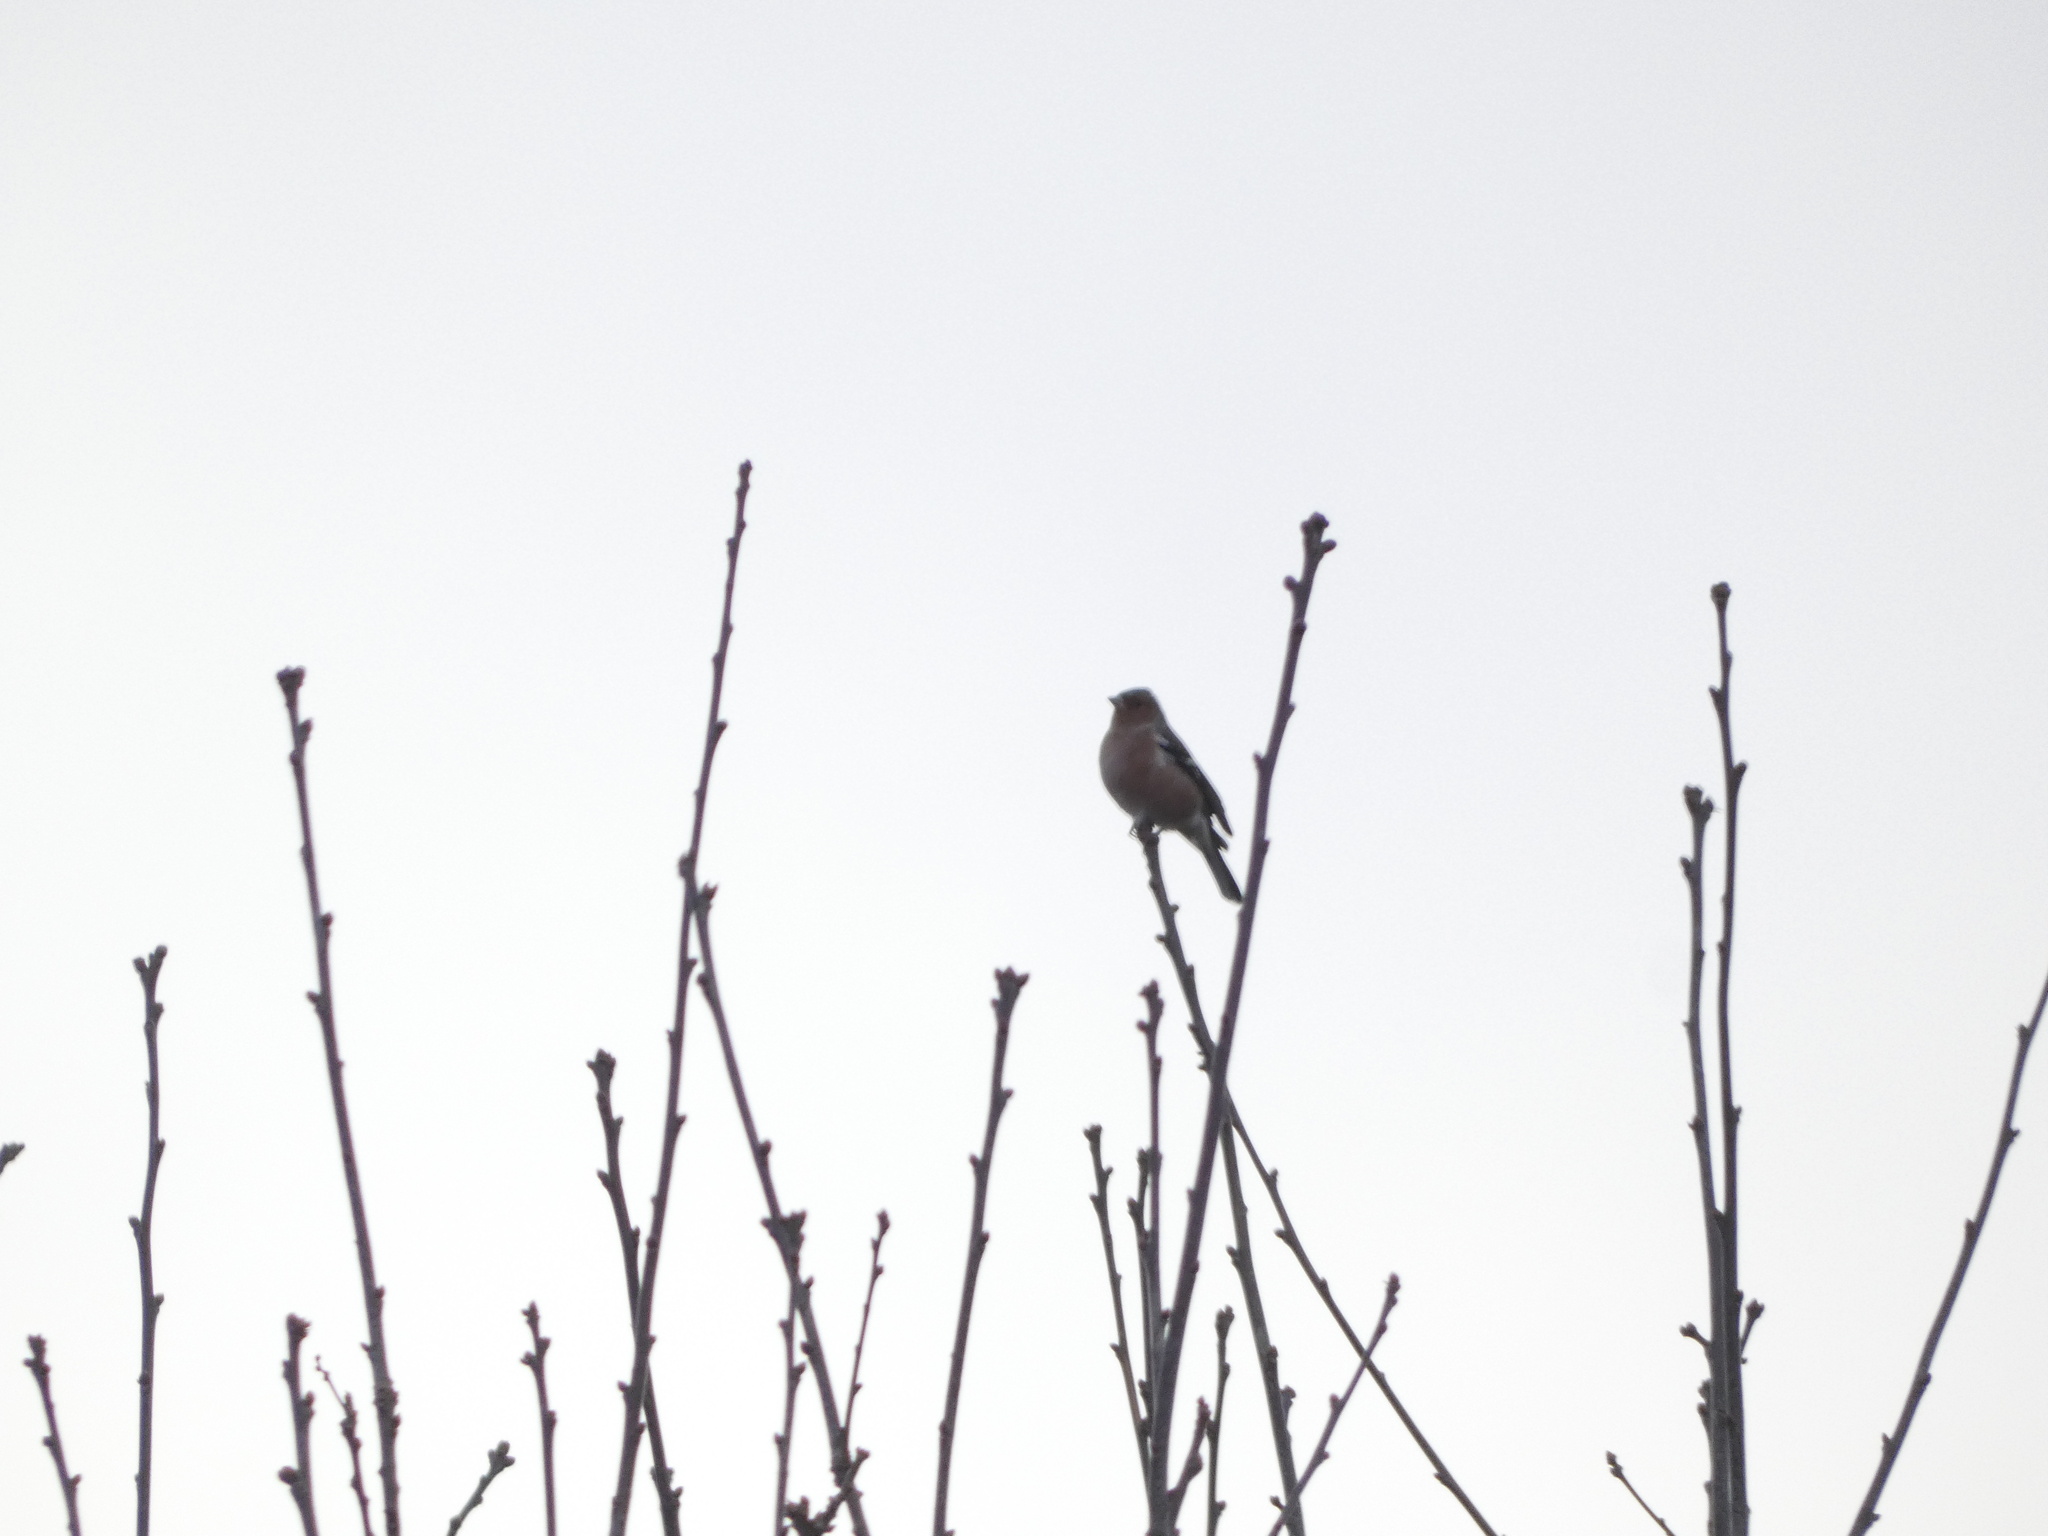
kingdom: Animalia
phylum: Chordata
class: Aves
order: Passeriformes
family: Fringillidae
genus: Fringilla
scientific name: Fringilla coelebs
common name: Common chaffinch
